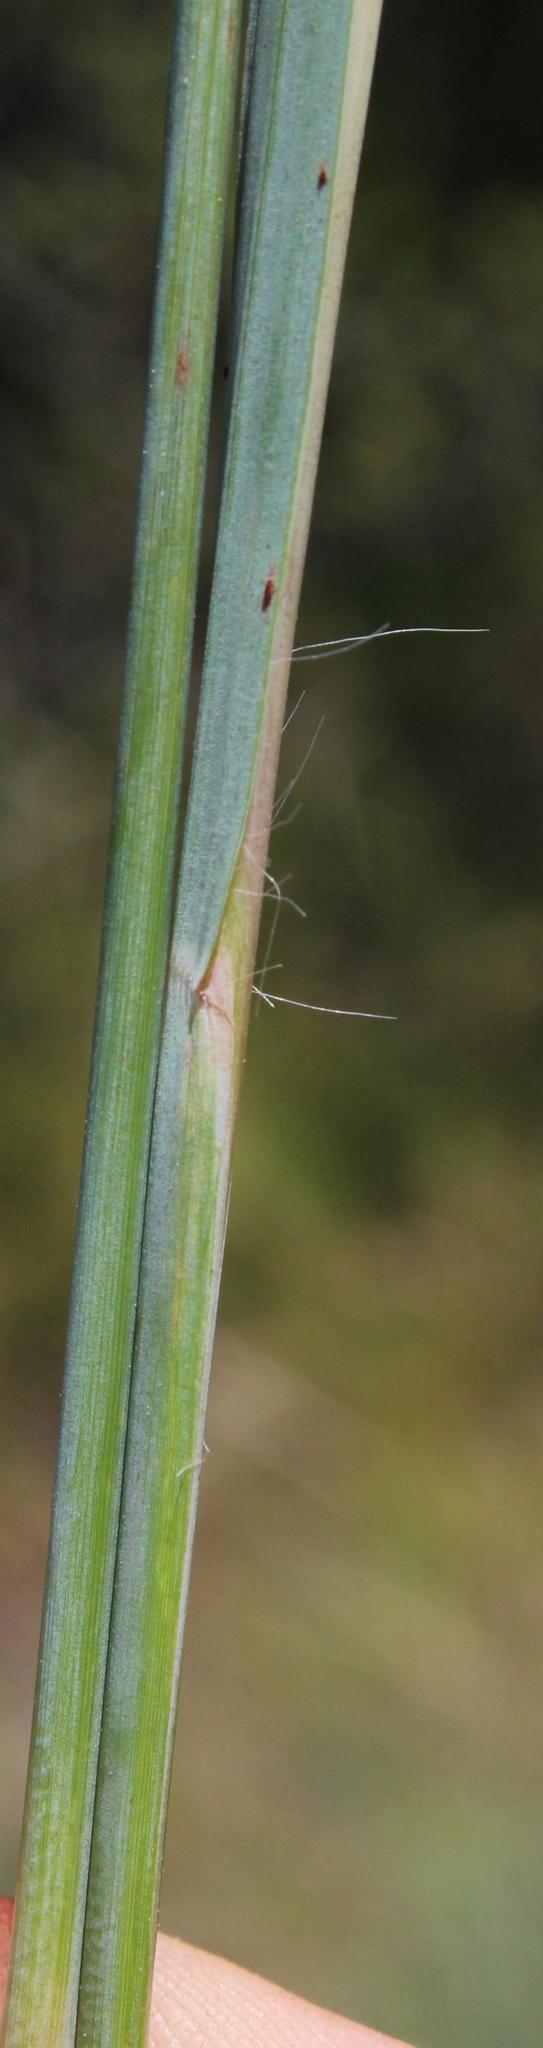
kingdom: Plantae
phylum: Tracheophyta
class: Liliopsida
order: Poales
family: Poaceae
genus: Hyparrhenia
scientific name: Hyparrhenia hirta
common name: Thatching grass
